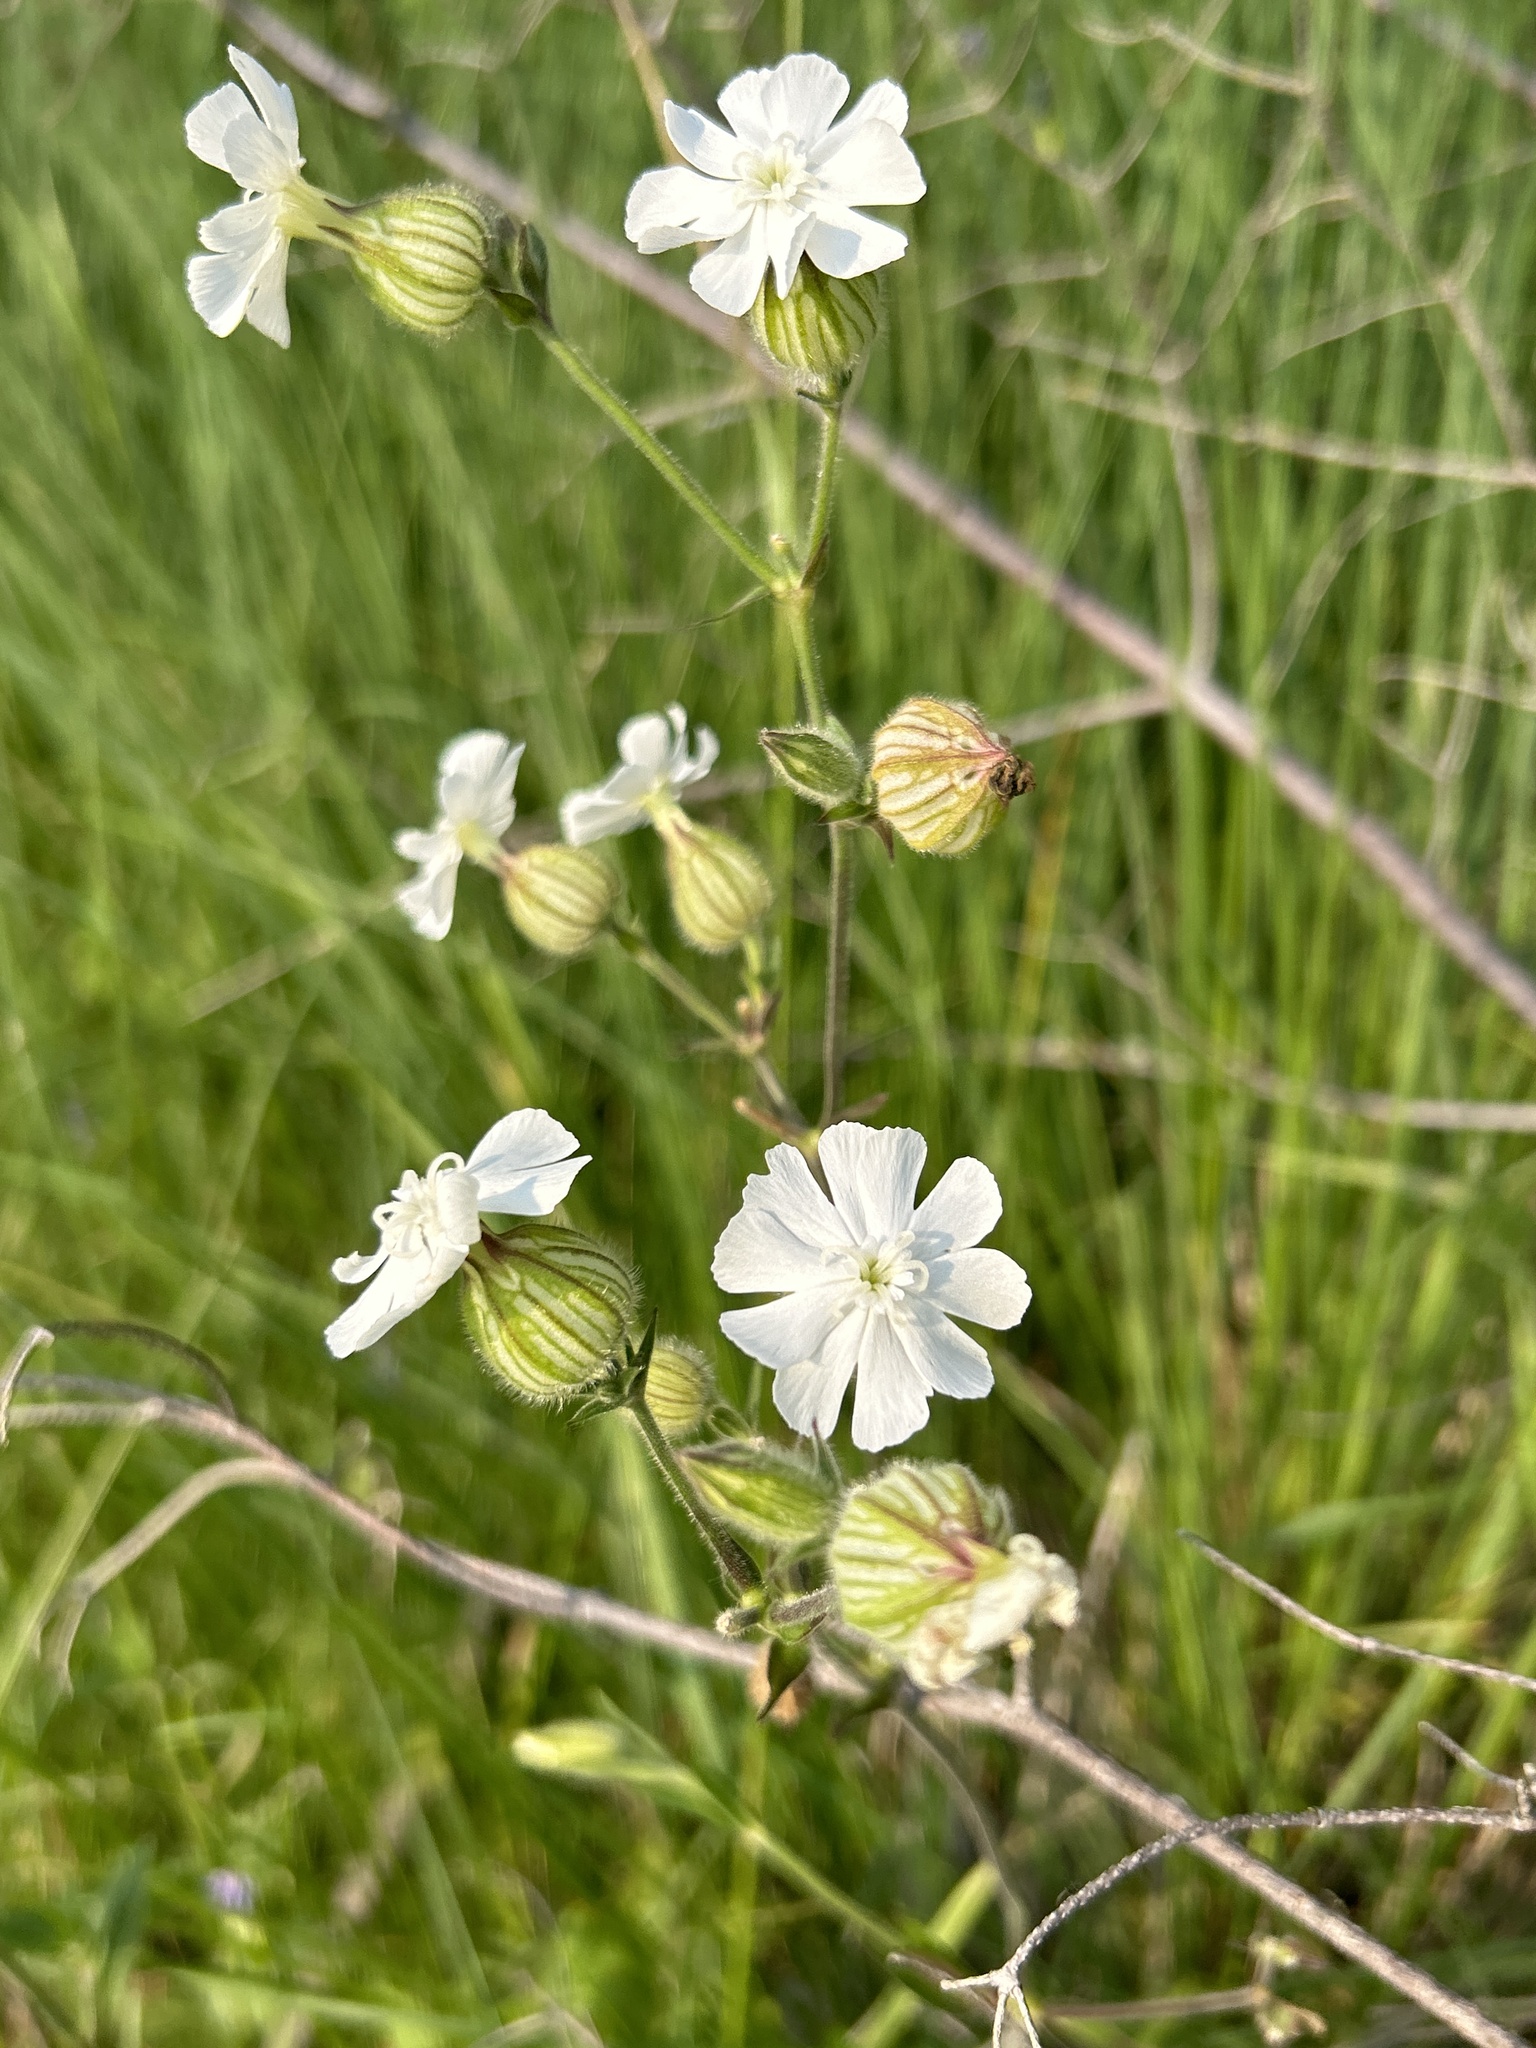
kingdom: Plantae
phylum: Tracheophyta
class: Magnoliopsida
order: Caryophyllales
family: Caryophyllaceae
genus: Silene
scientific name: Silene latifolia
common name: White campion
